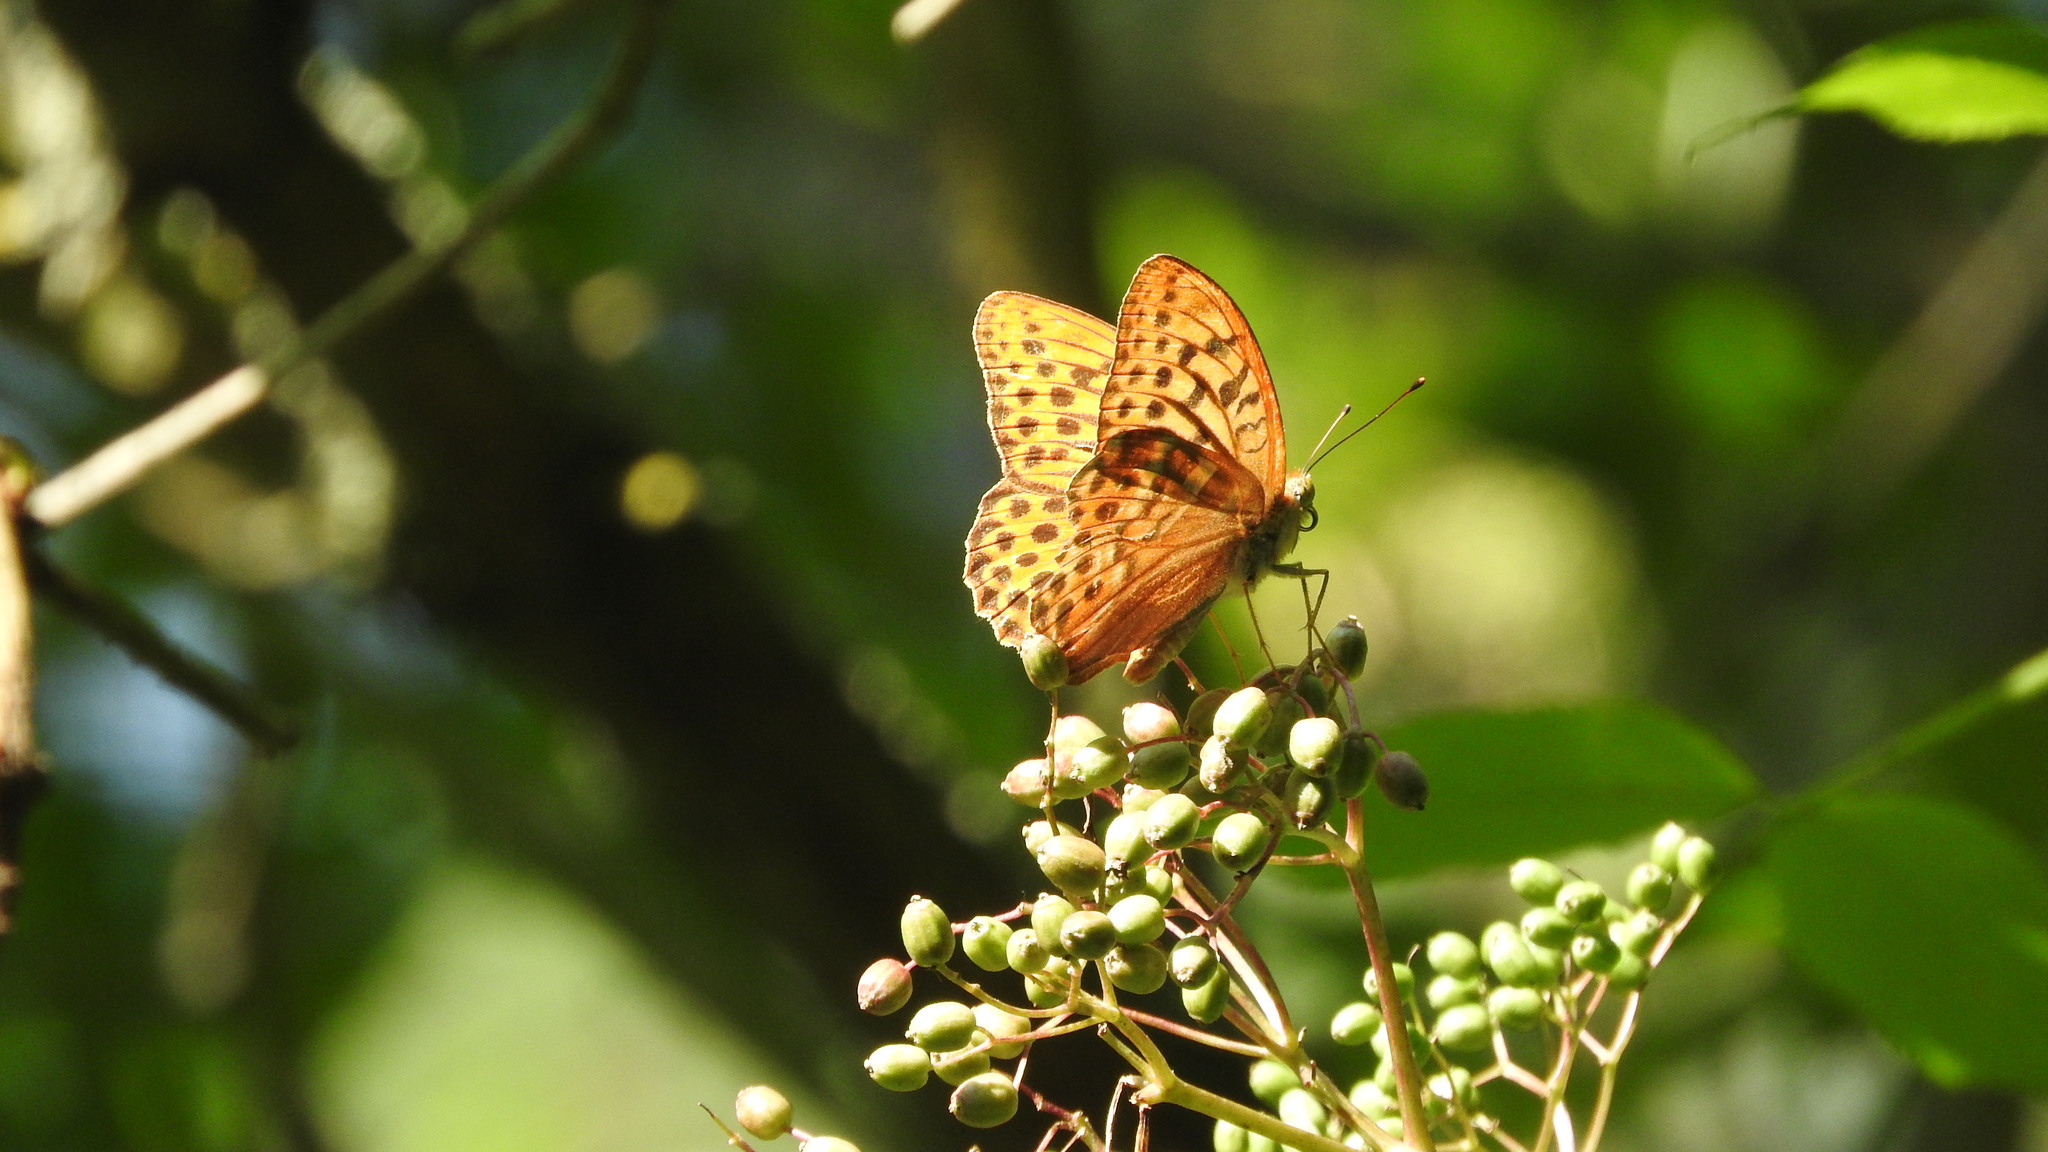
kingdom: Animalia
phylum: Arthropoda
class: Insecta
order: Lepidoptera
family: Nymphalidae
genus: Argynnis
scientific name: Argynnis paphia
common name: Silver-washed fritillary
